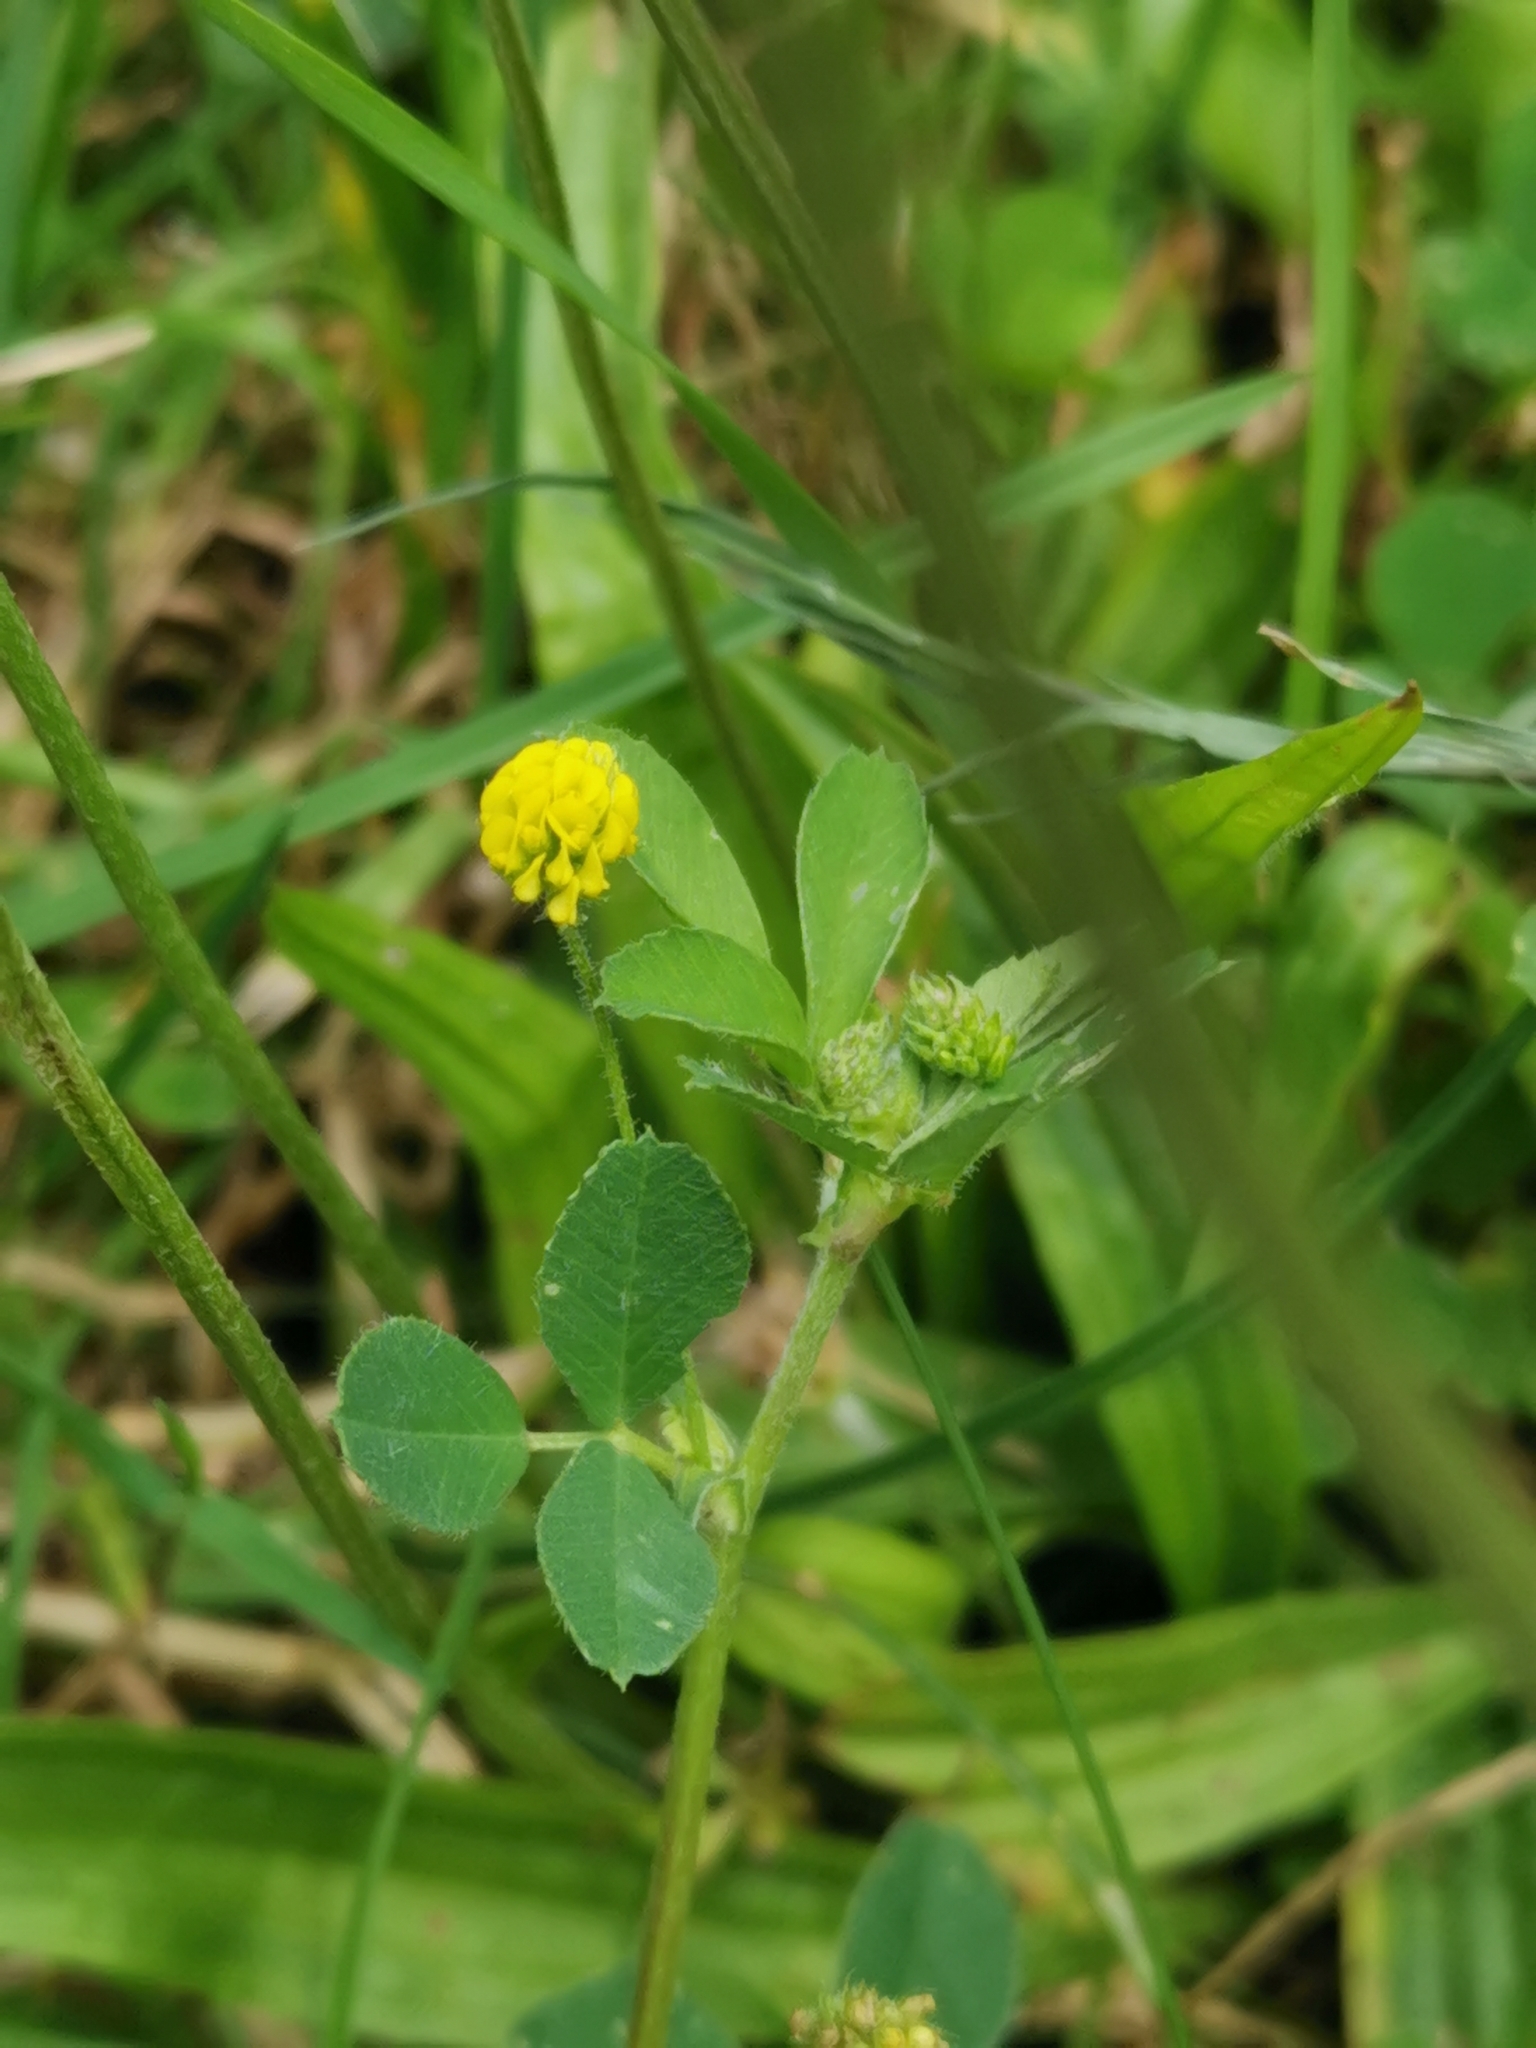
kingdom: Plantae
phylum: Tracheophyta
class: Magnoliopsida
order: Fabales
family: Fabaceae
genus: Medicago
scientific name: Medicago lupulina
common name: Black medick
